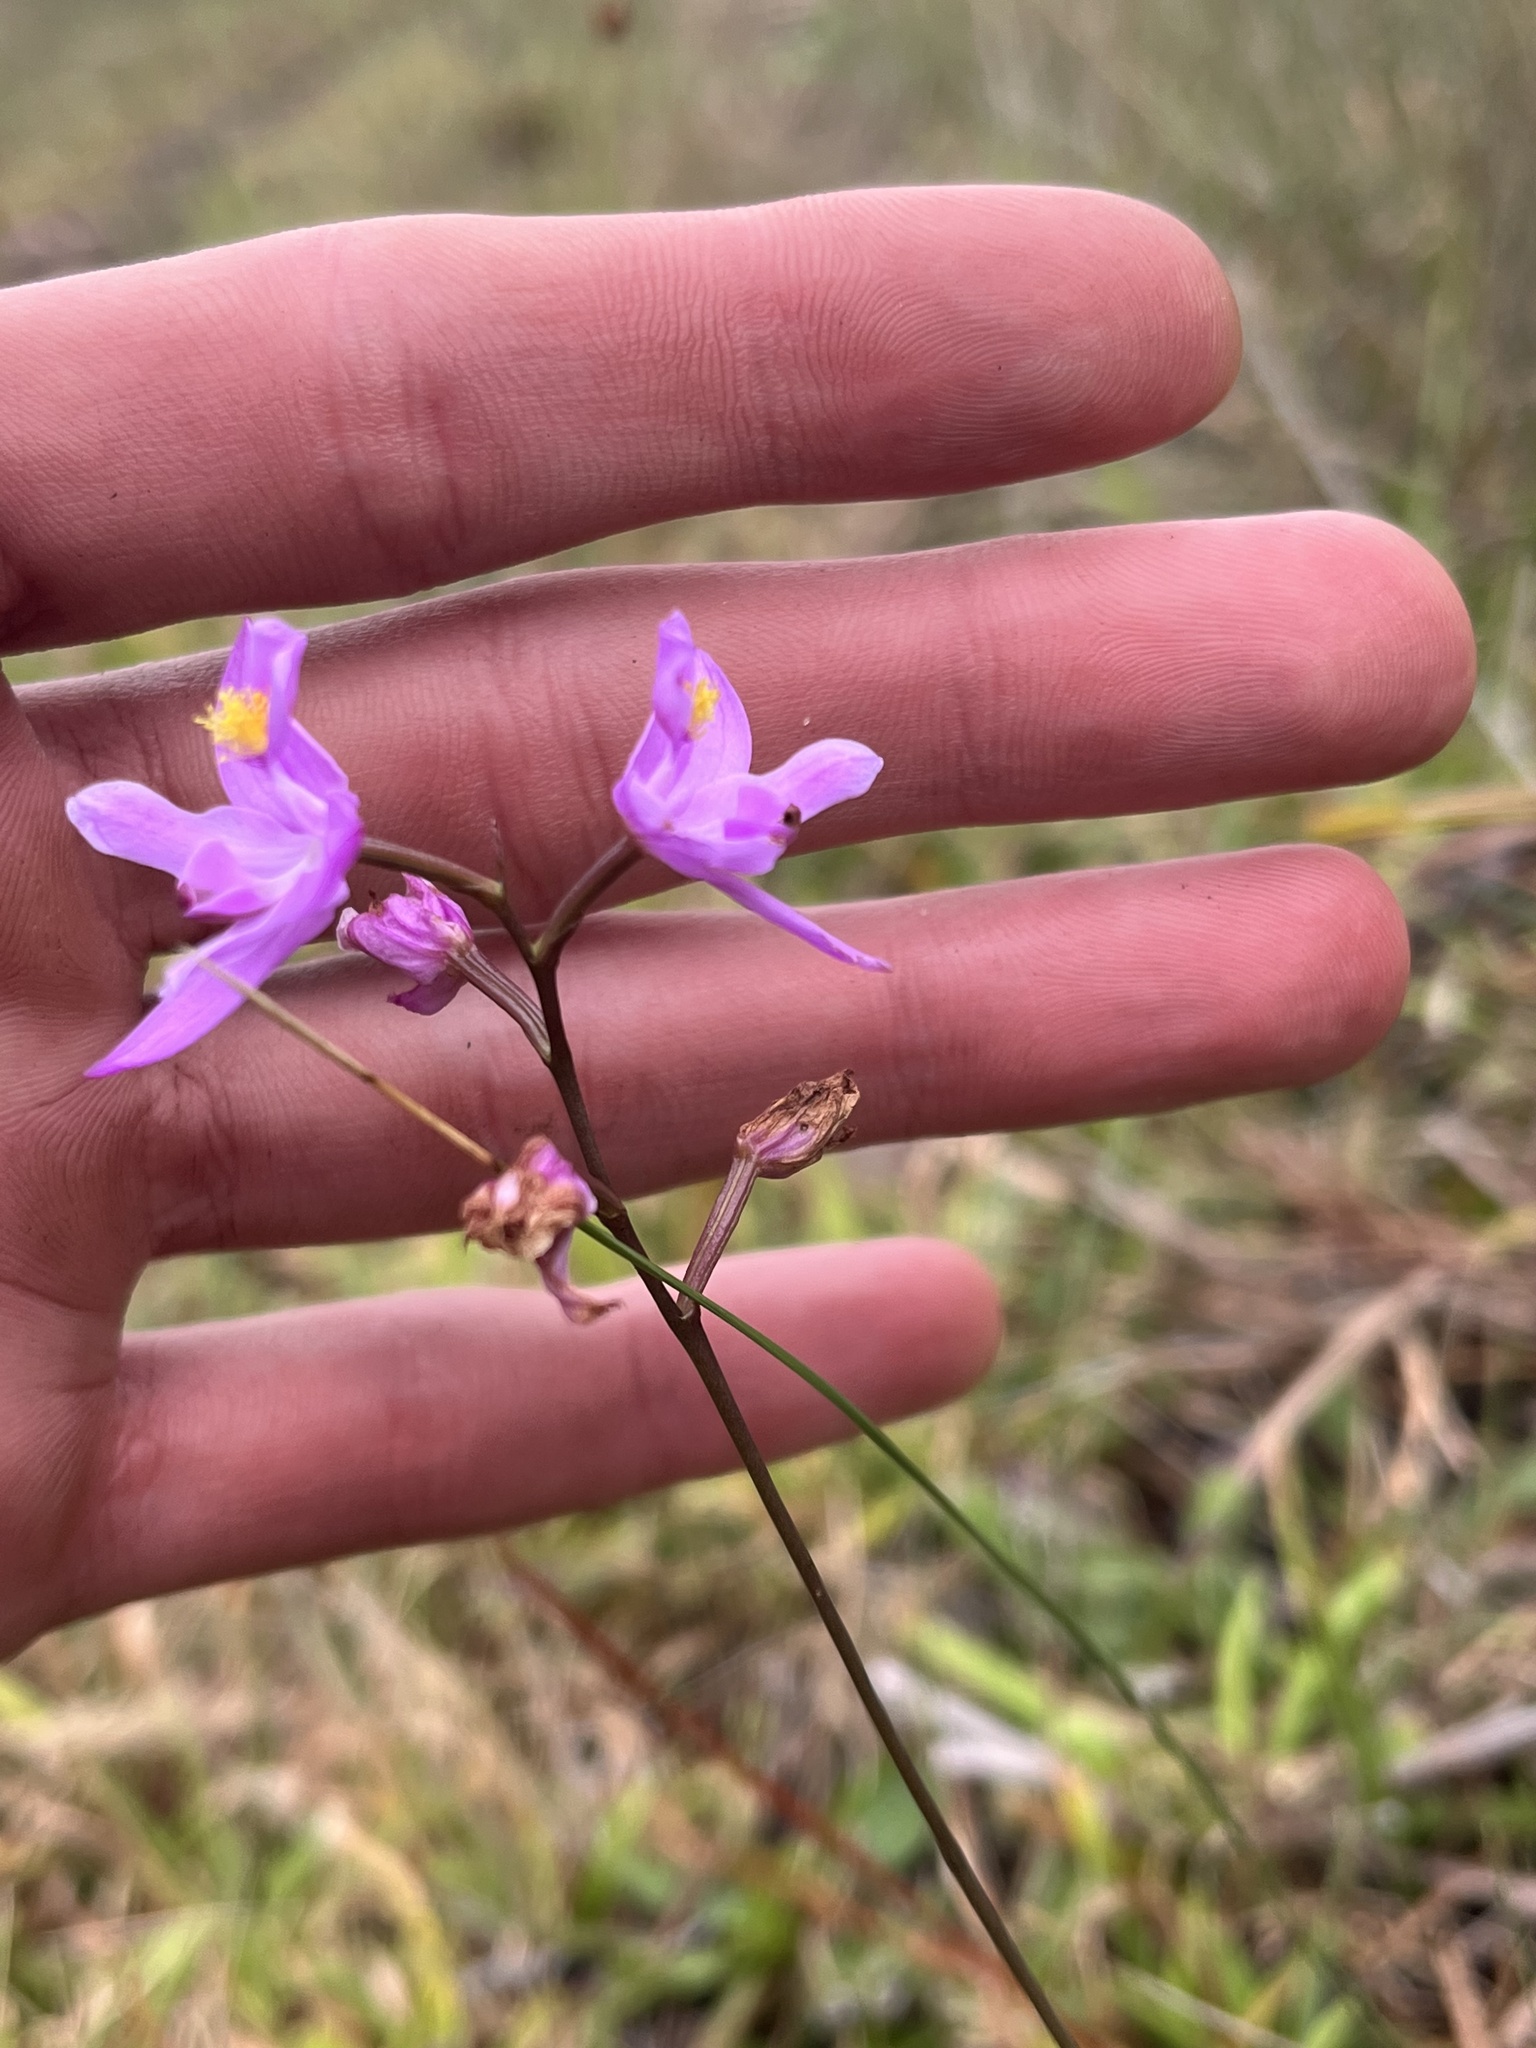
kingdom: Plantae
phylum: Tracheophyta
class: Liliopsida
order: Asparagales
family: Orchidaceae
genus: Calopogon
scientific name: Calopogon barbatus
